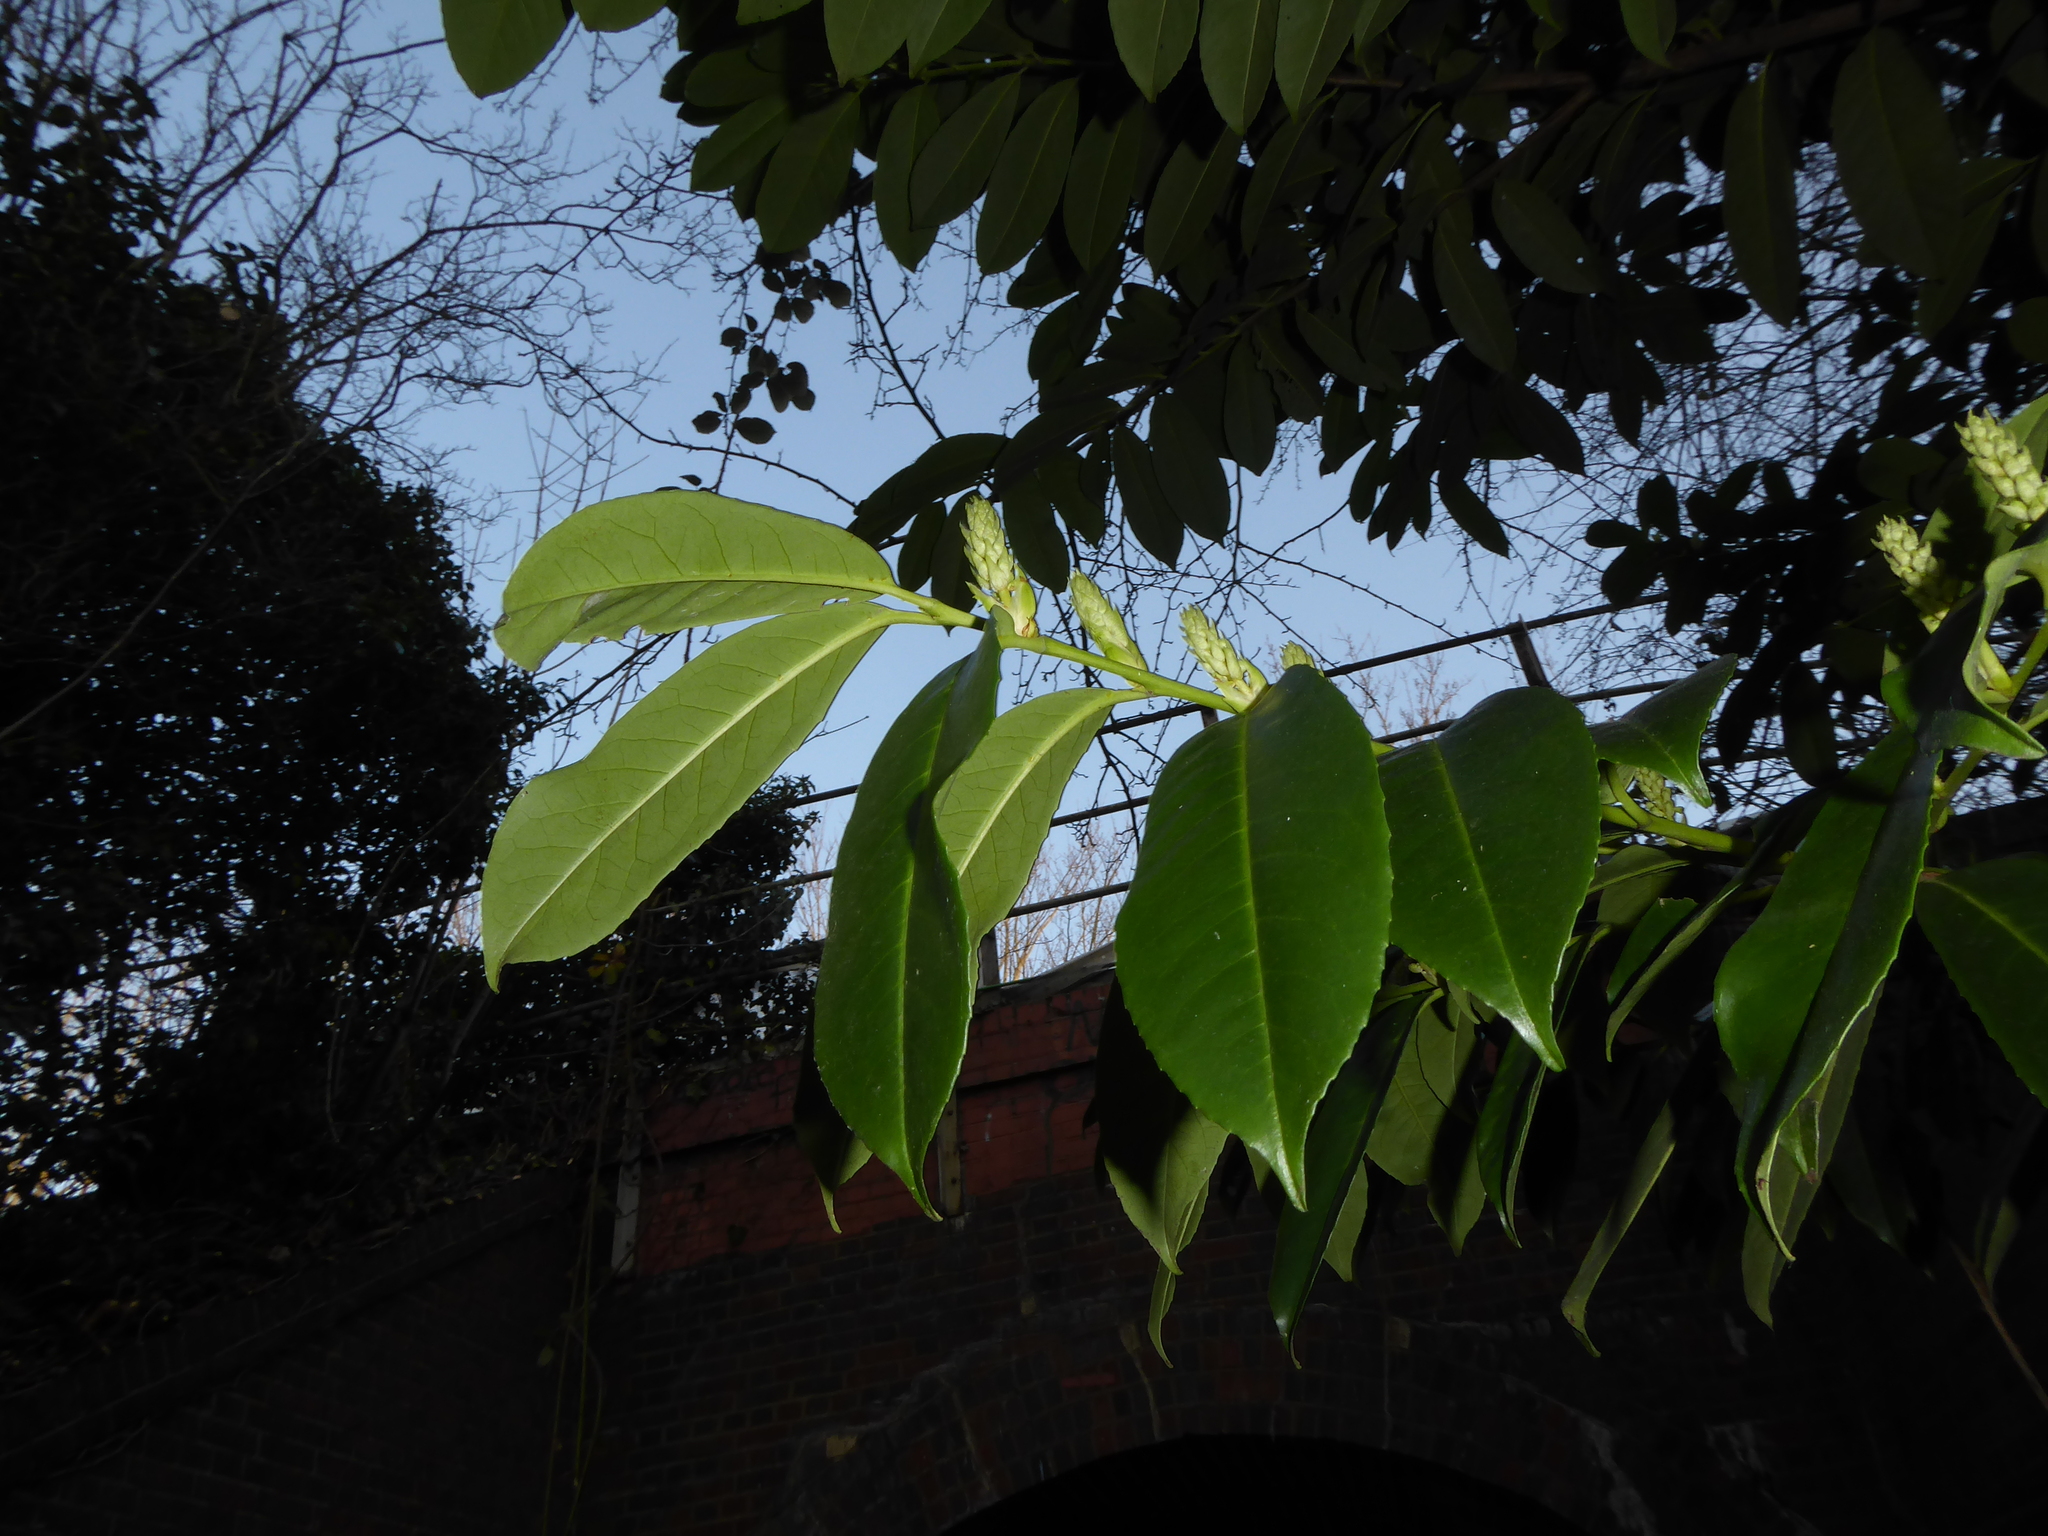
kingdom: Plantae
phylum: Tracheophyta
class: Magnoliopsida
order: Rosales
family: Rosaceae
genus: Prunus
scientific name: Prunus laurocerasus
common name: Cherry laurel
